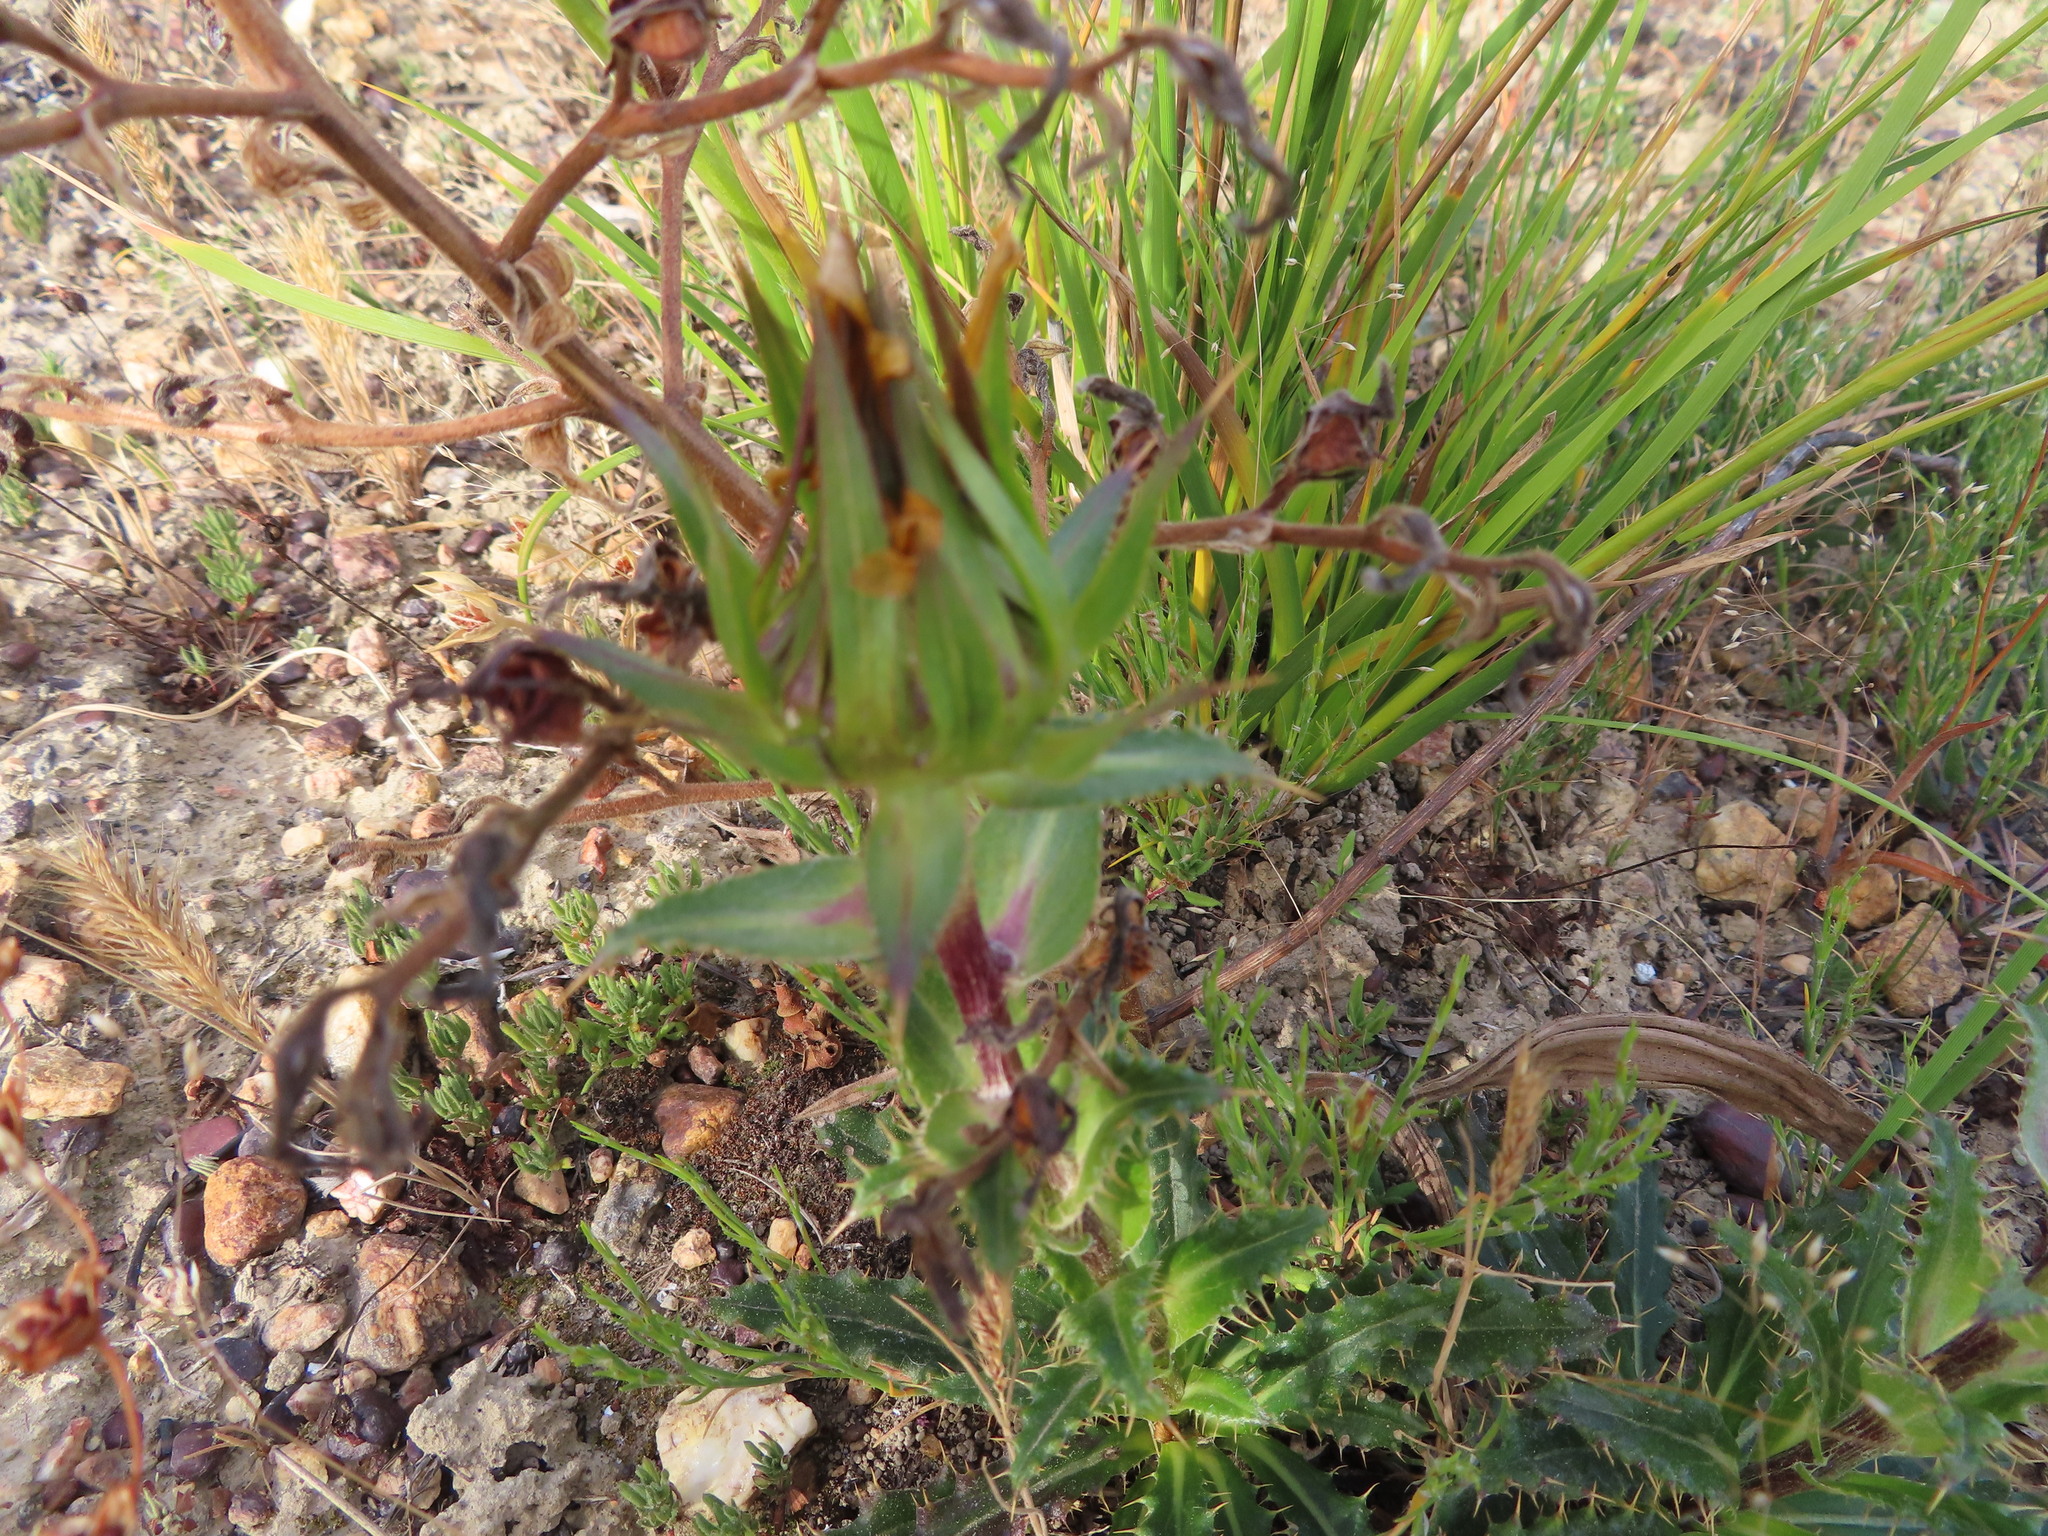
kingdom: Plantae
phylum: Tracheophyta
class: Magnoliopsida
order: Asterales
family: Asteraceae
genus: Berkheya
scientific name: Berkheya armata
